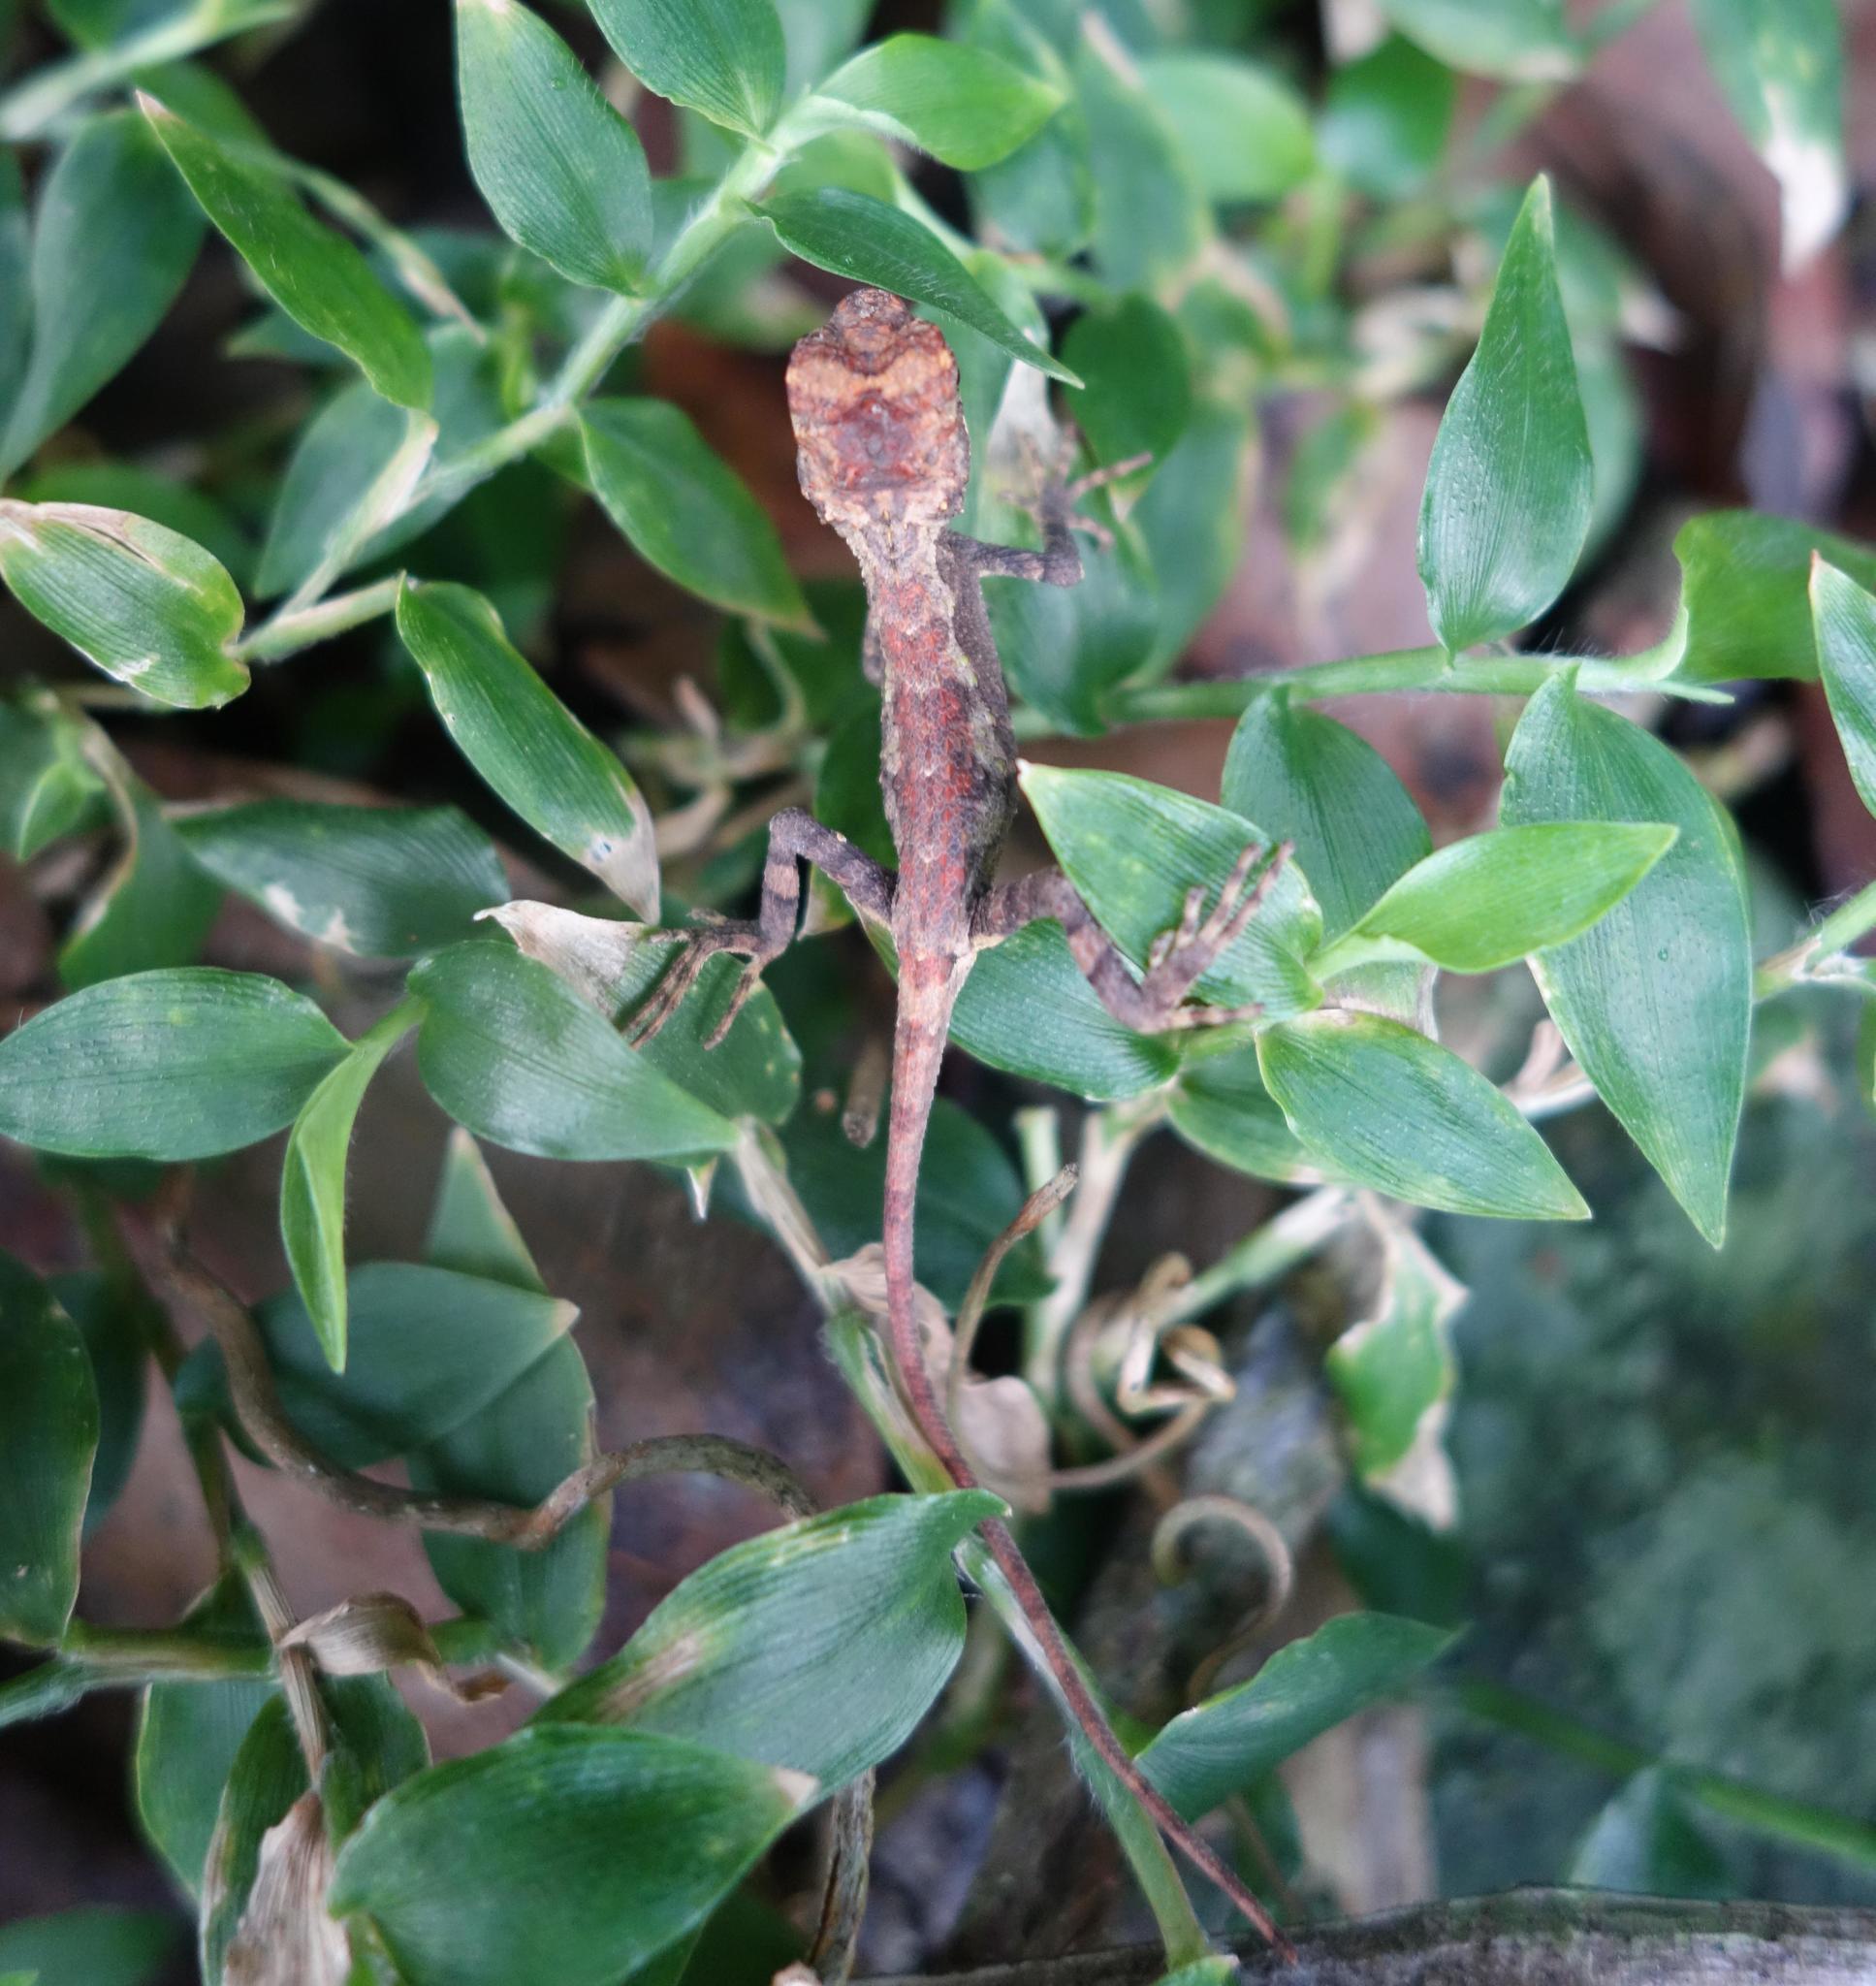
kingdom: Animalia
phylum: Chordata
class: Squamata
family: Agamidae
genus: Diploderma
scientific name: Diploderma swinhonis
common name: Taiwan japalure
